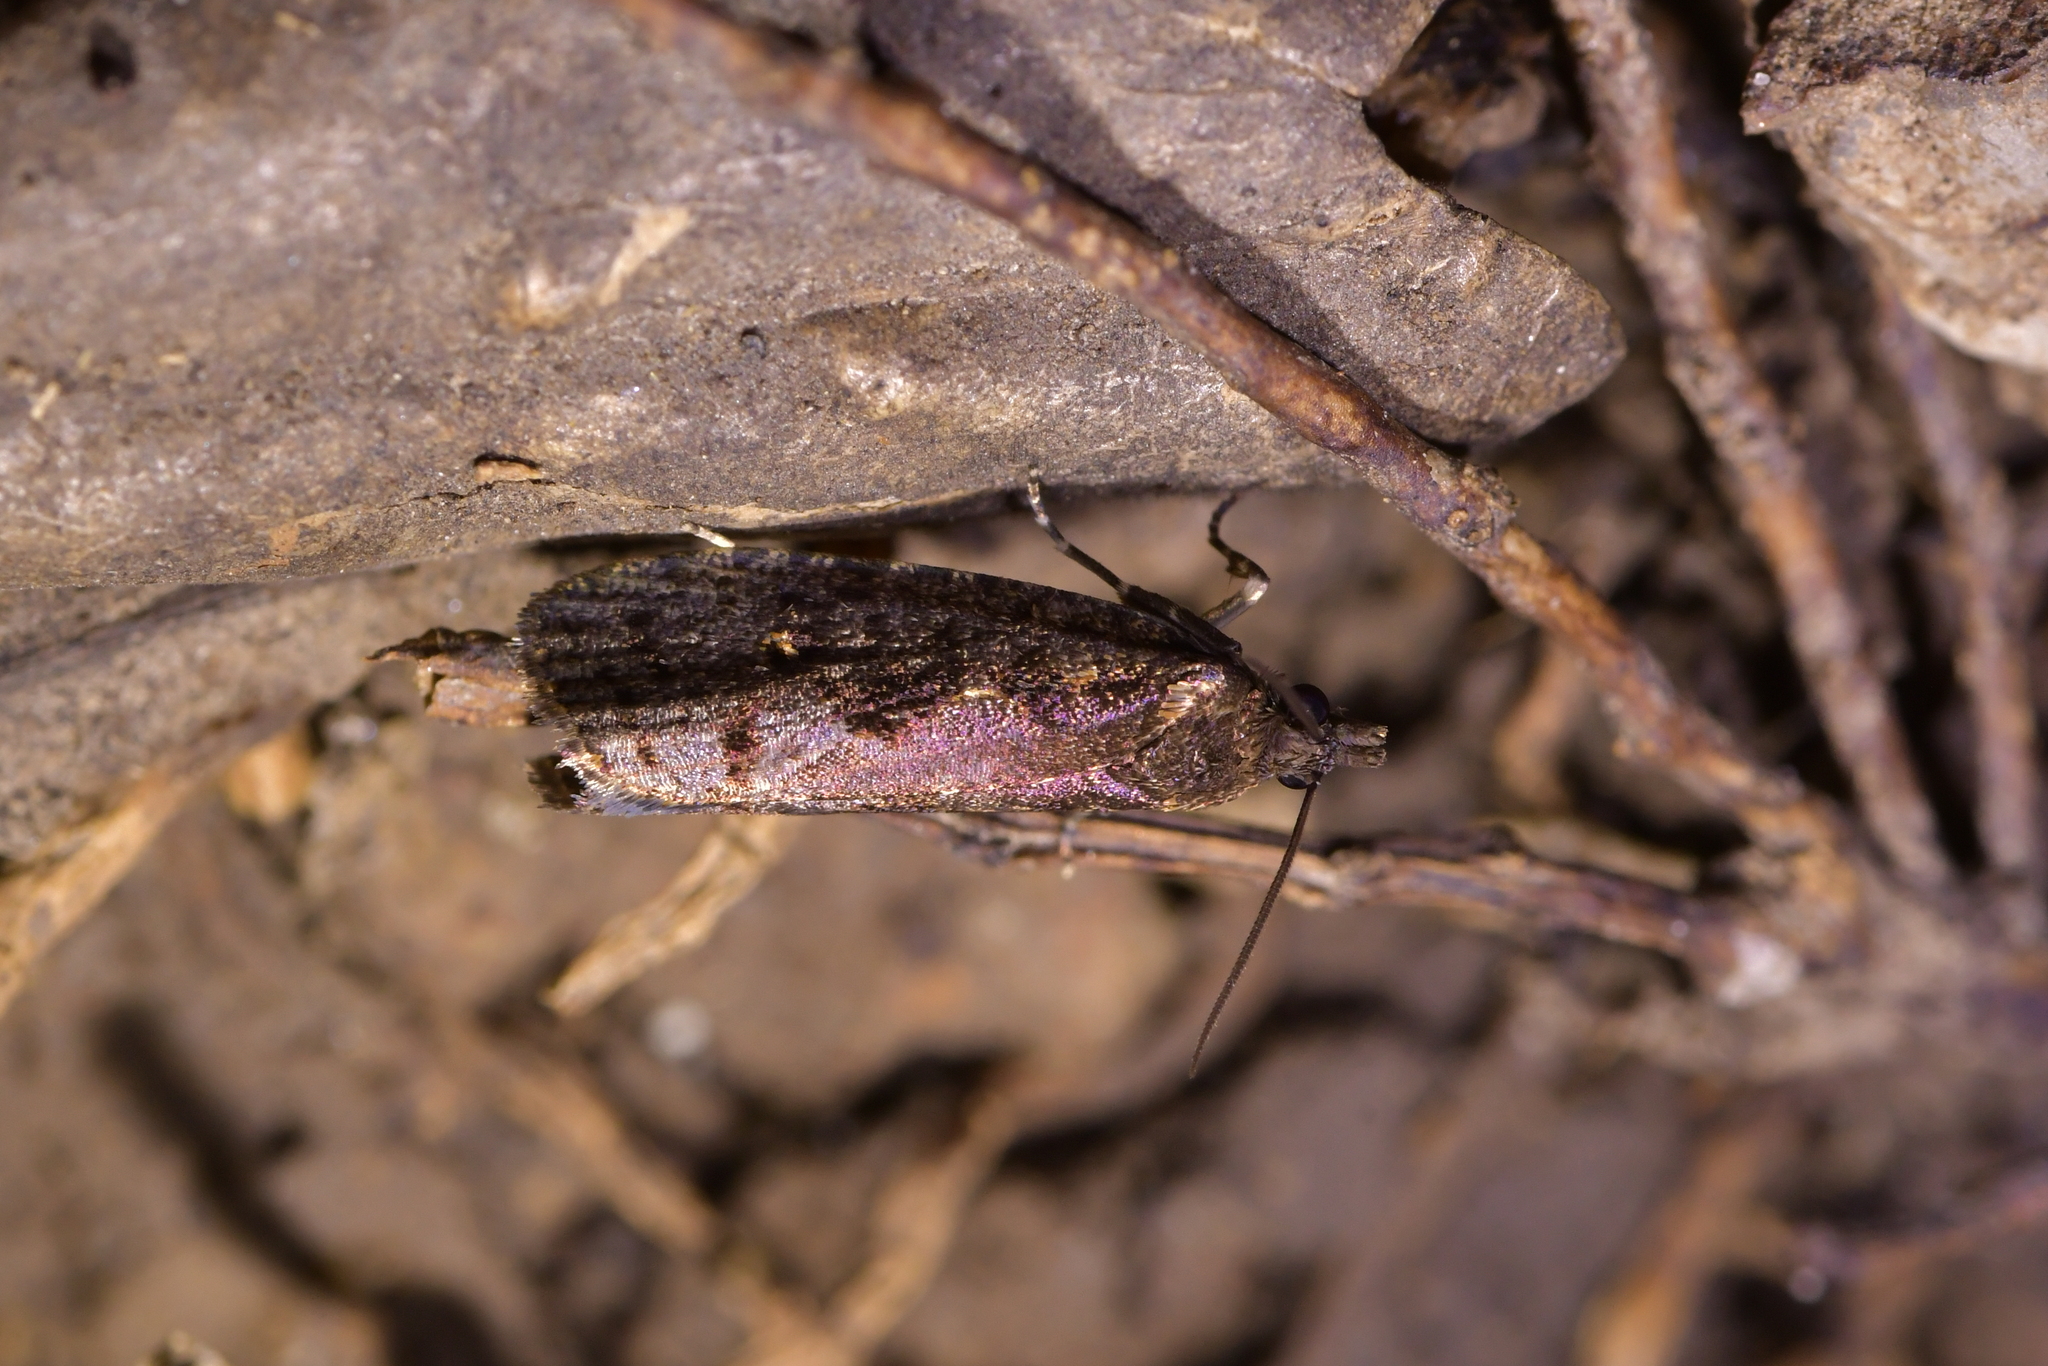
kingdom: Animalia
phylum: Arthropoda
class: Insecta
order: Lepidoptera
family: Tortricidae
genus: Cryptaspasma
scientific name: Cryptaspasma querula
